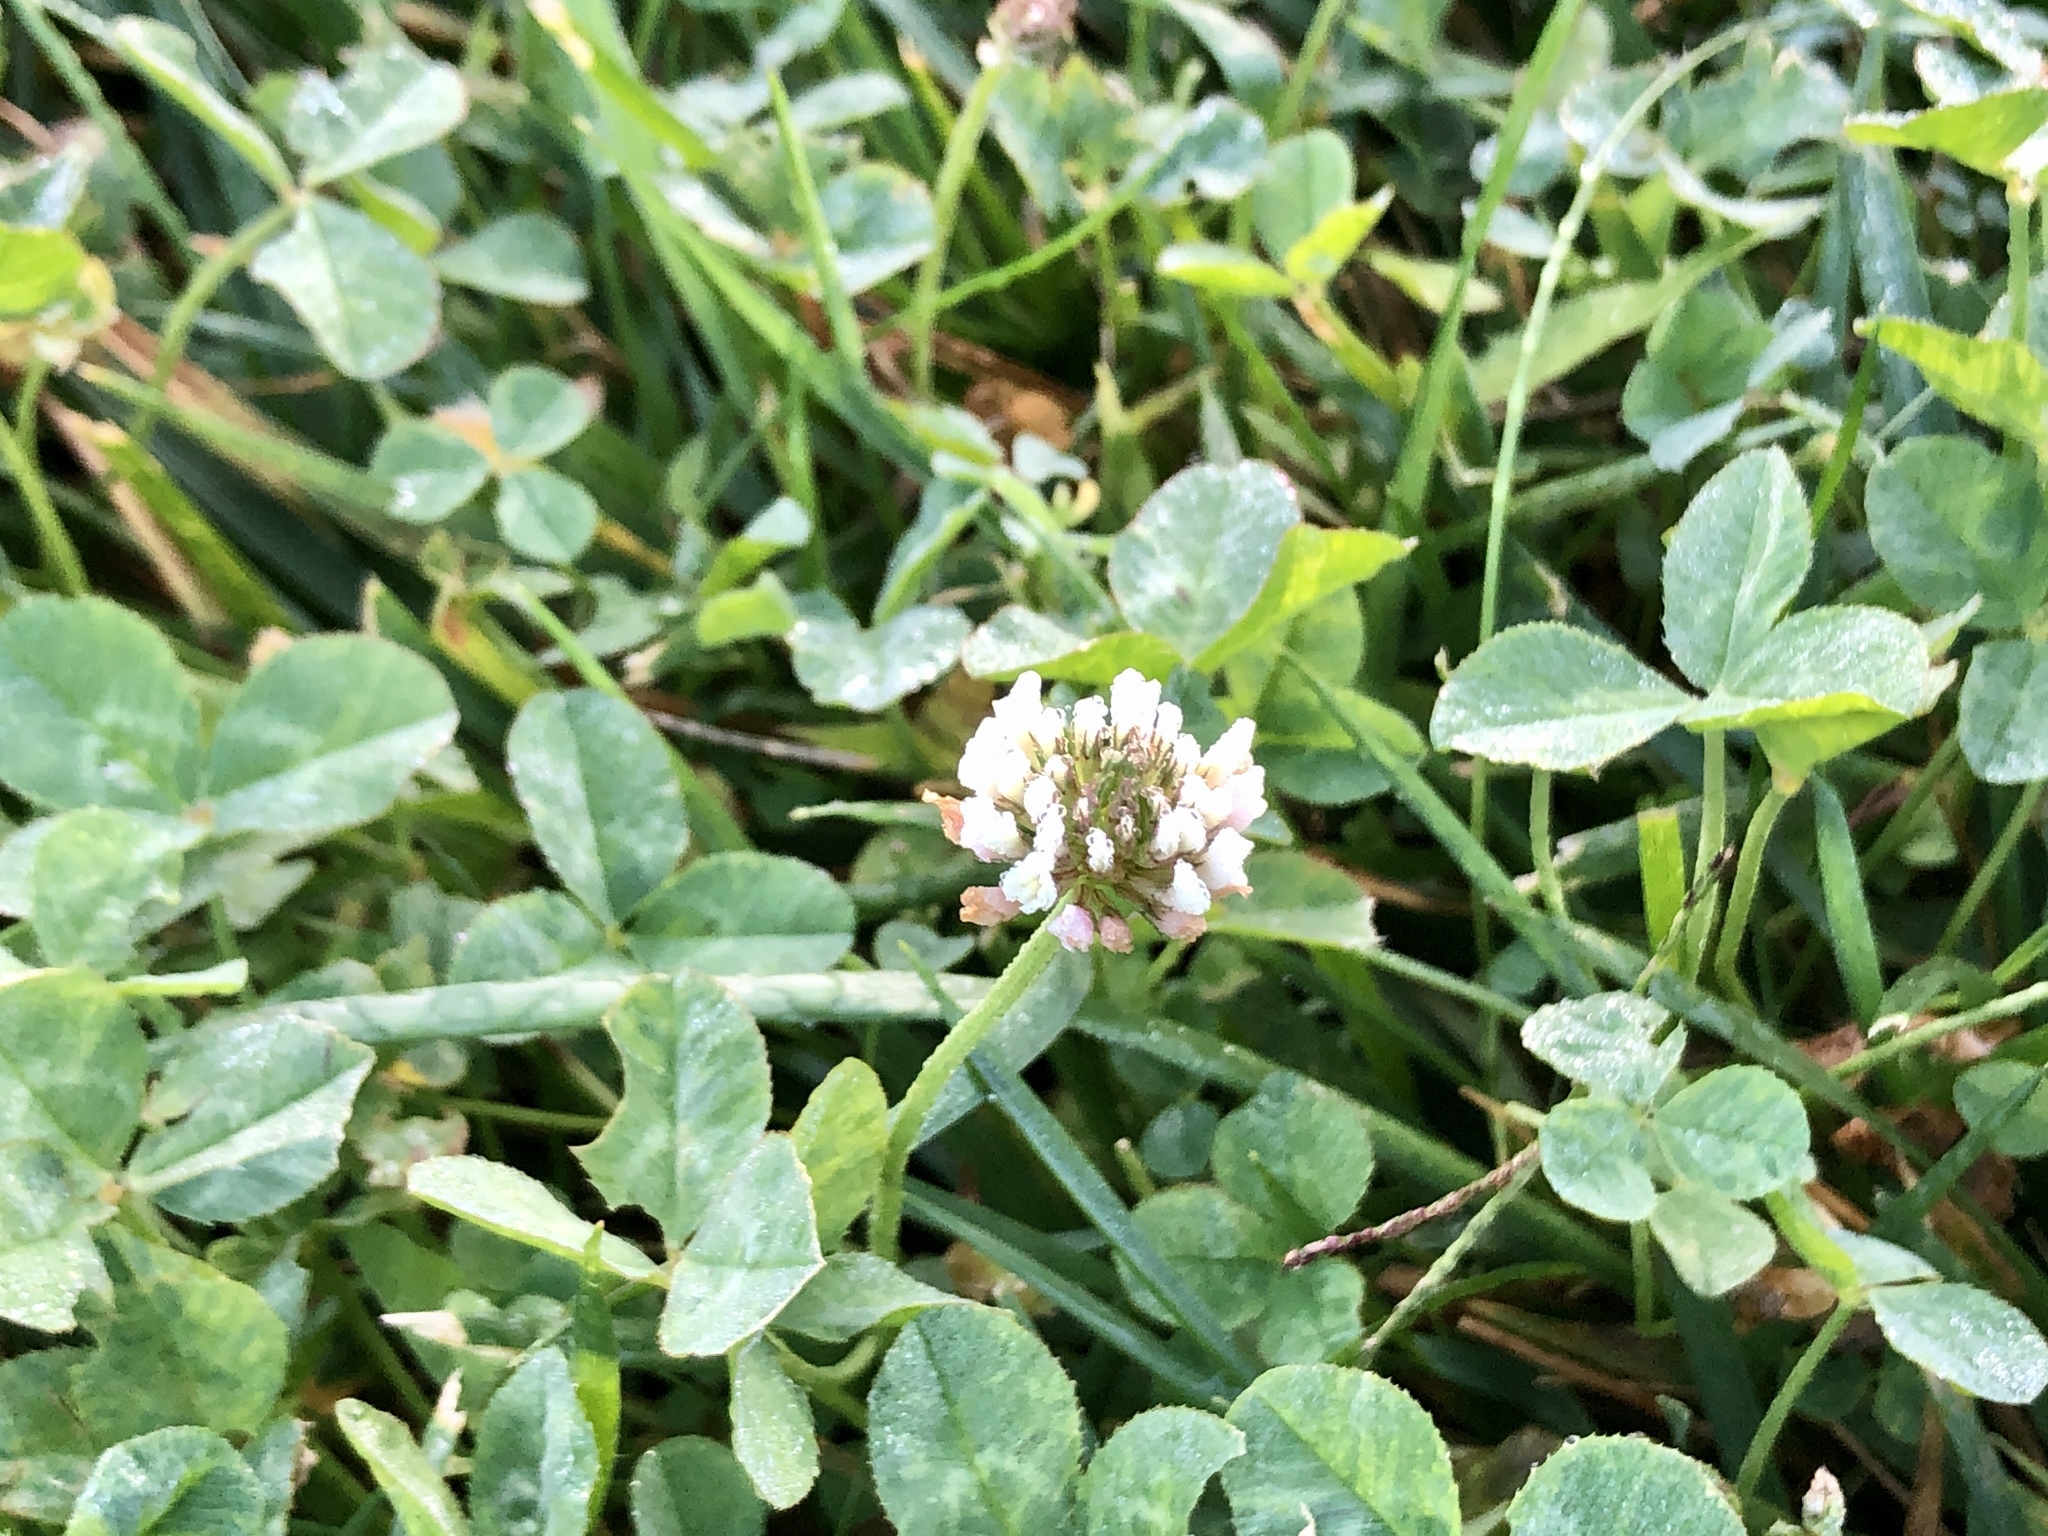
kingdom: Plantae
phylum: Tracheophyta
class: Magnoliopsida
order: Fabales
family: Fabaceae
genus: Trifolium
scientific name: Trifolium repens
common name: White clover
